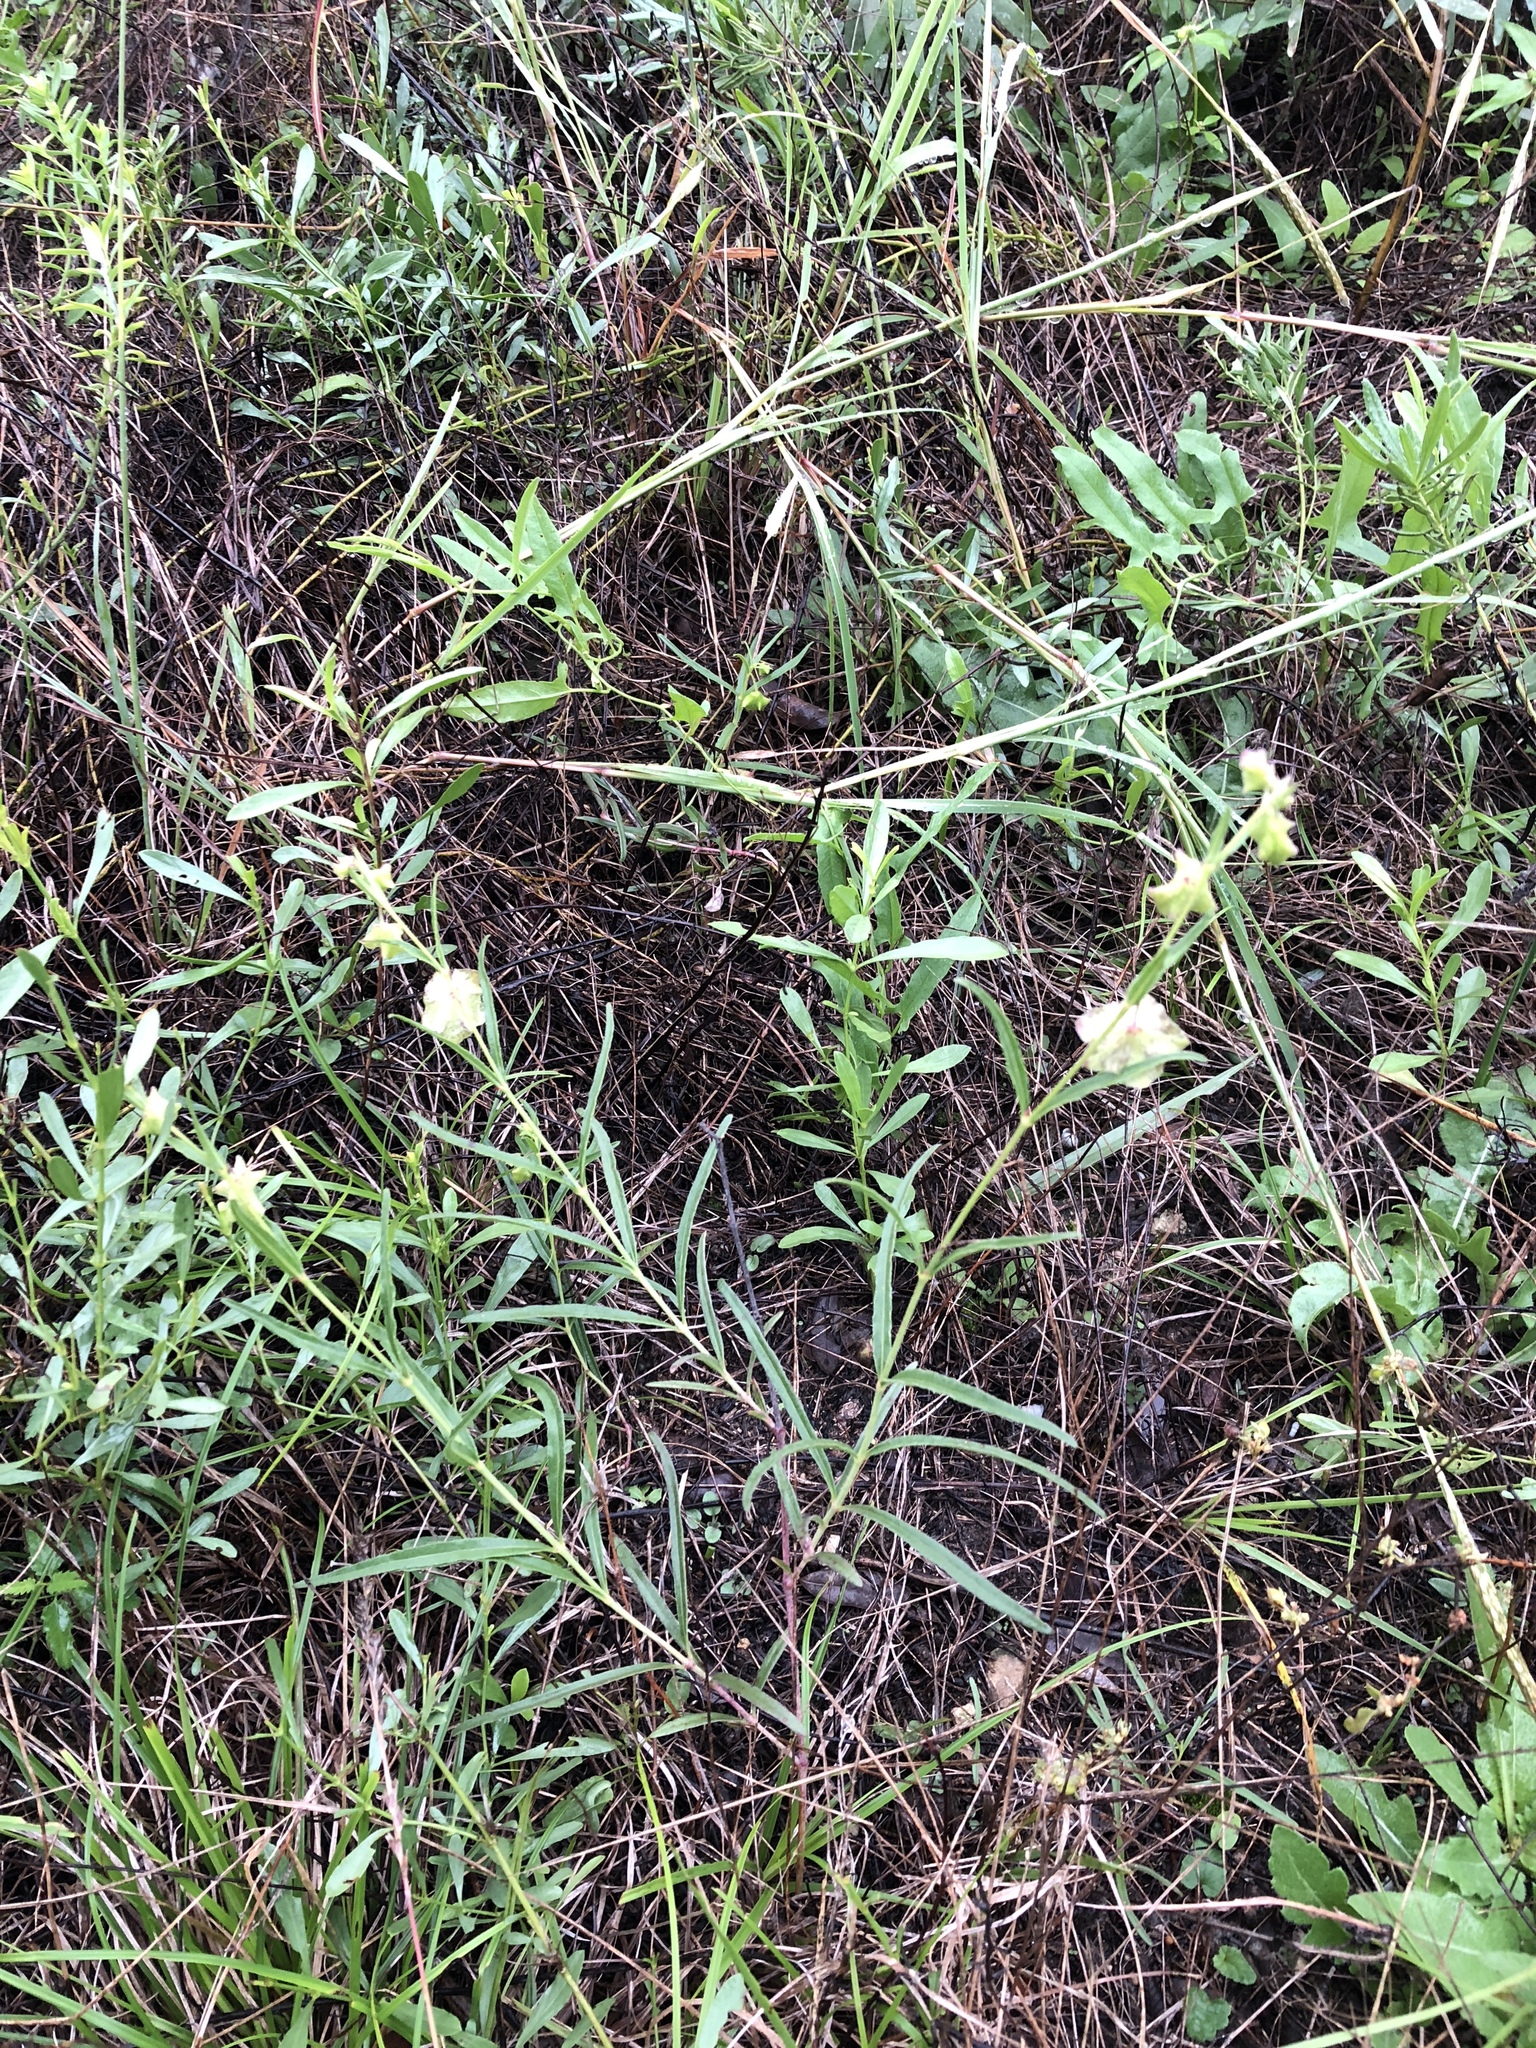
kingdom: Plantae
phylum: Tracheophyta
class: Magnoliopsida
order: Caryophyllales
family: Nyctaginaceae
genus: Mirabilis
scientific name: Mirabilis albida
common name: Hairy four-o'clock
